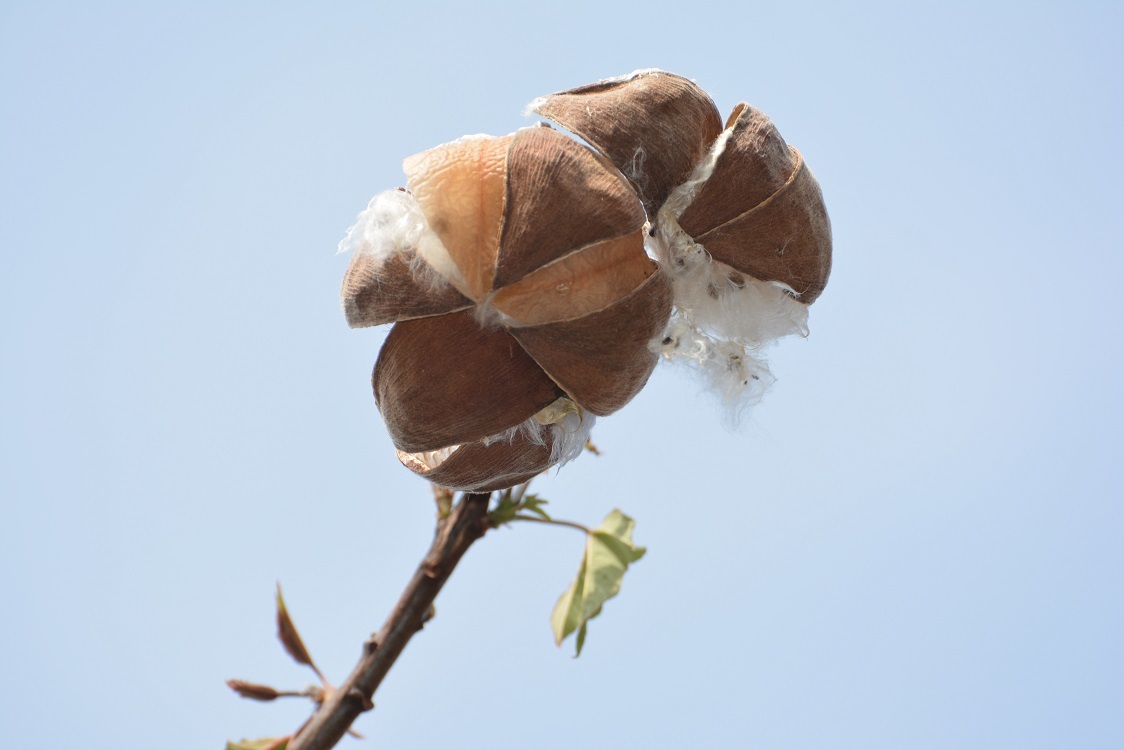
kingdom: Plantae
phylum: Tracheophyta
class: Magnoliopsida
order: Malvales
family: Cochlospermaceae
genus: Cochlospermum
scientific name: Cochlospermum vitifolium
